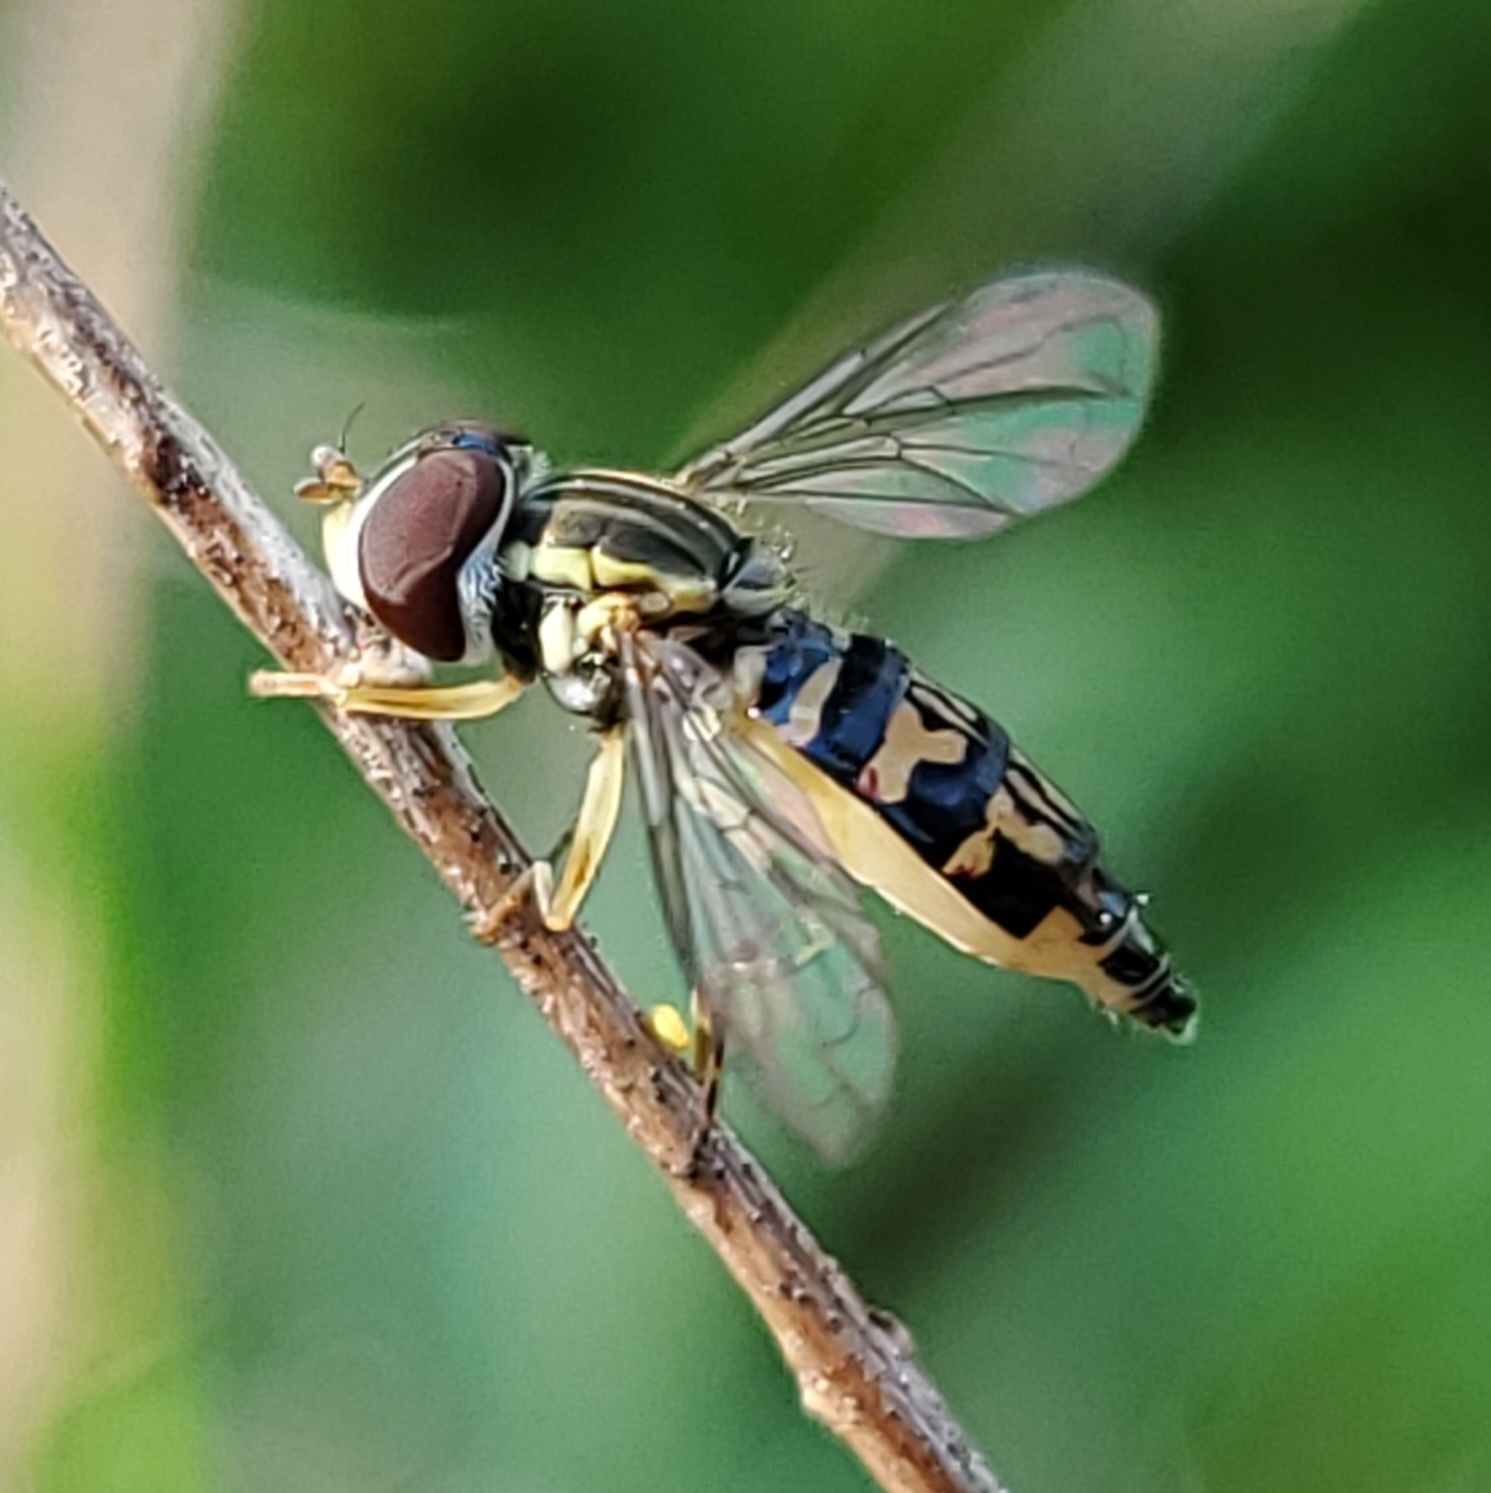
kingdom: Animalia
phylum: Arthropoda
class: Insecta
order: Diptera
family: Syrphidae
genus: Toxomerus
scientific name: Toxomerus geminatus
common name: Eastern calligrapher
